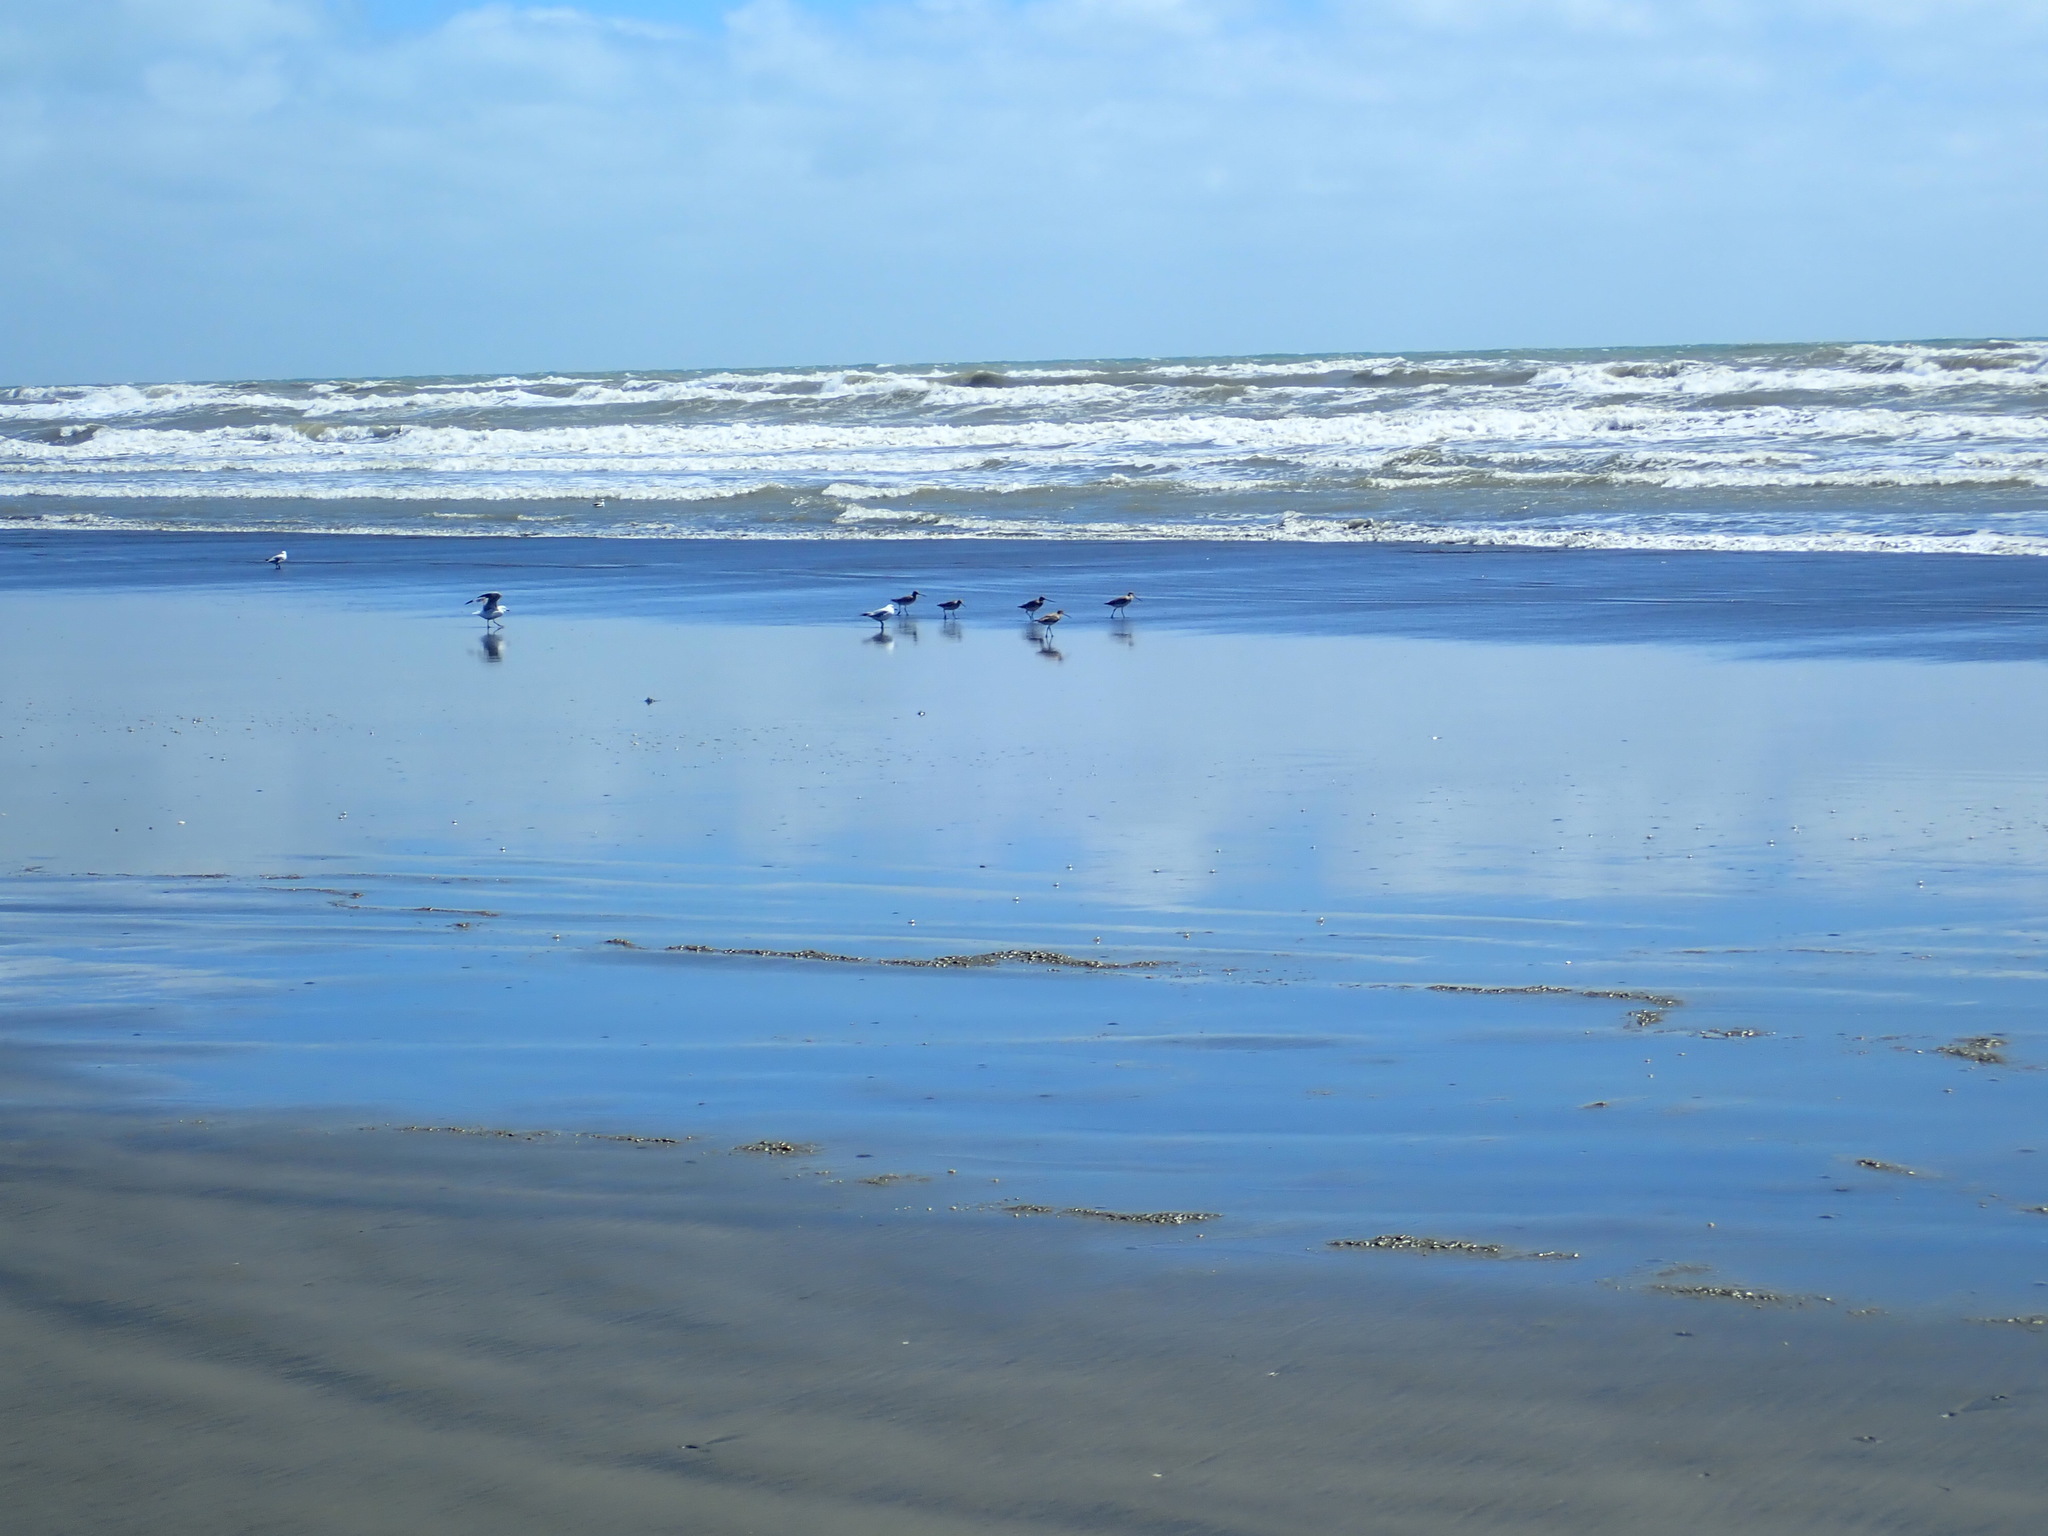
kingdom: Animalia
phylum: Chordata
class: Aves
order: Charadriiformes
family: Scolopacidae
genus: Limosa
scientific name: Limosa lapponica
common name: Bar-tailed godwit
